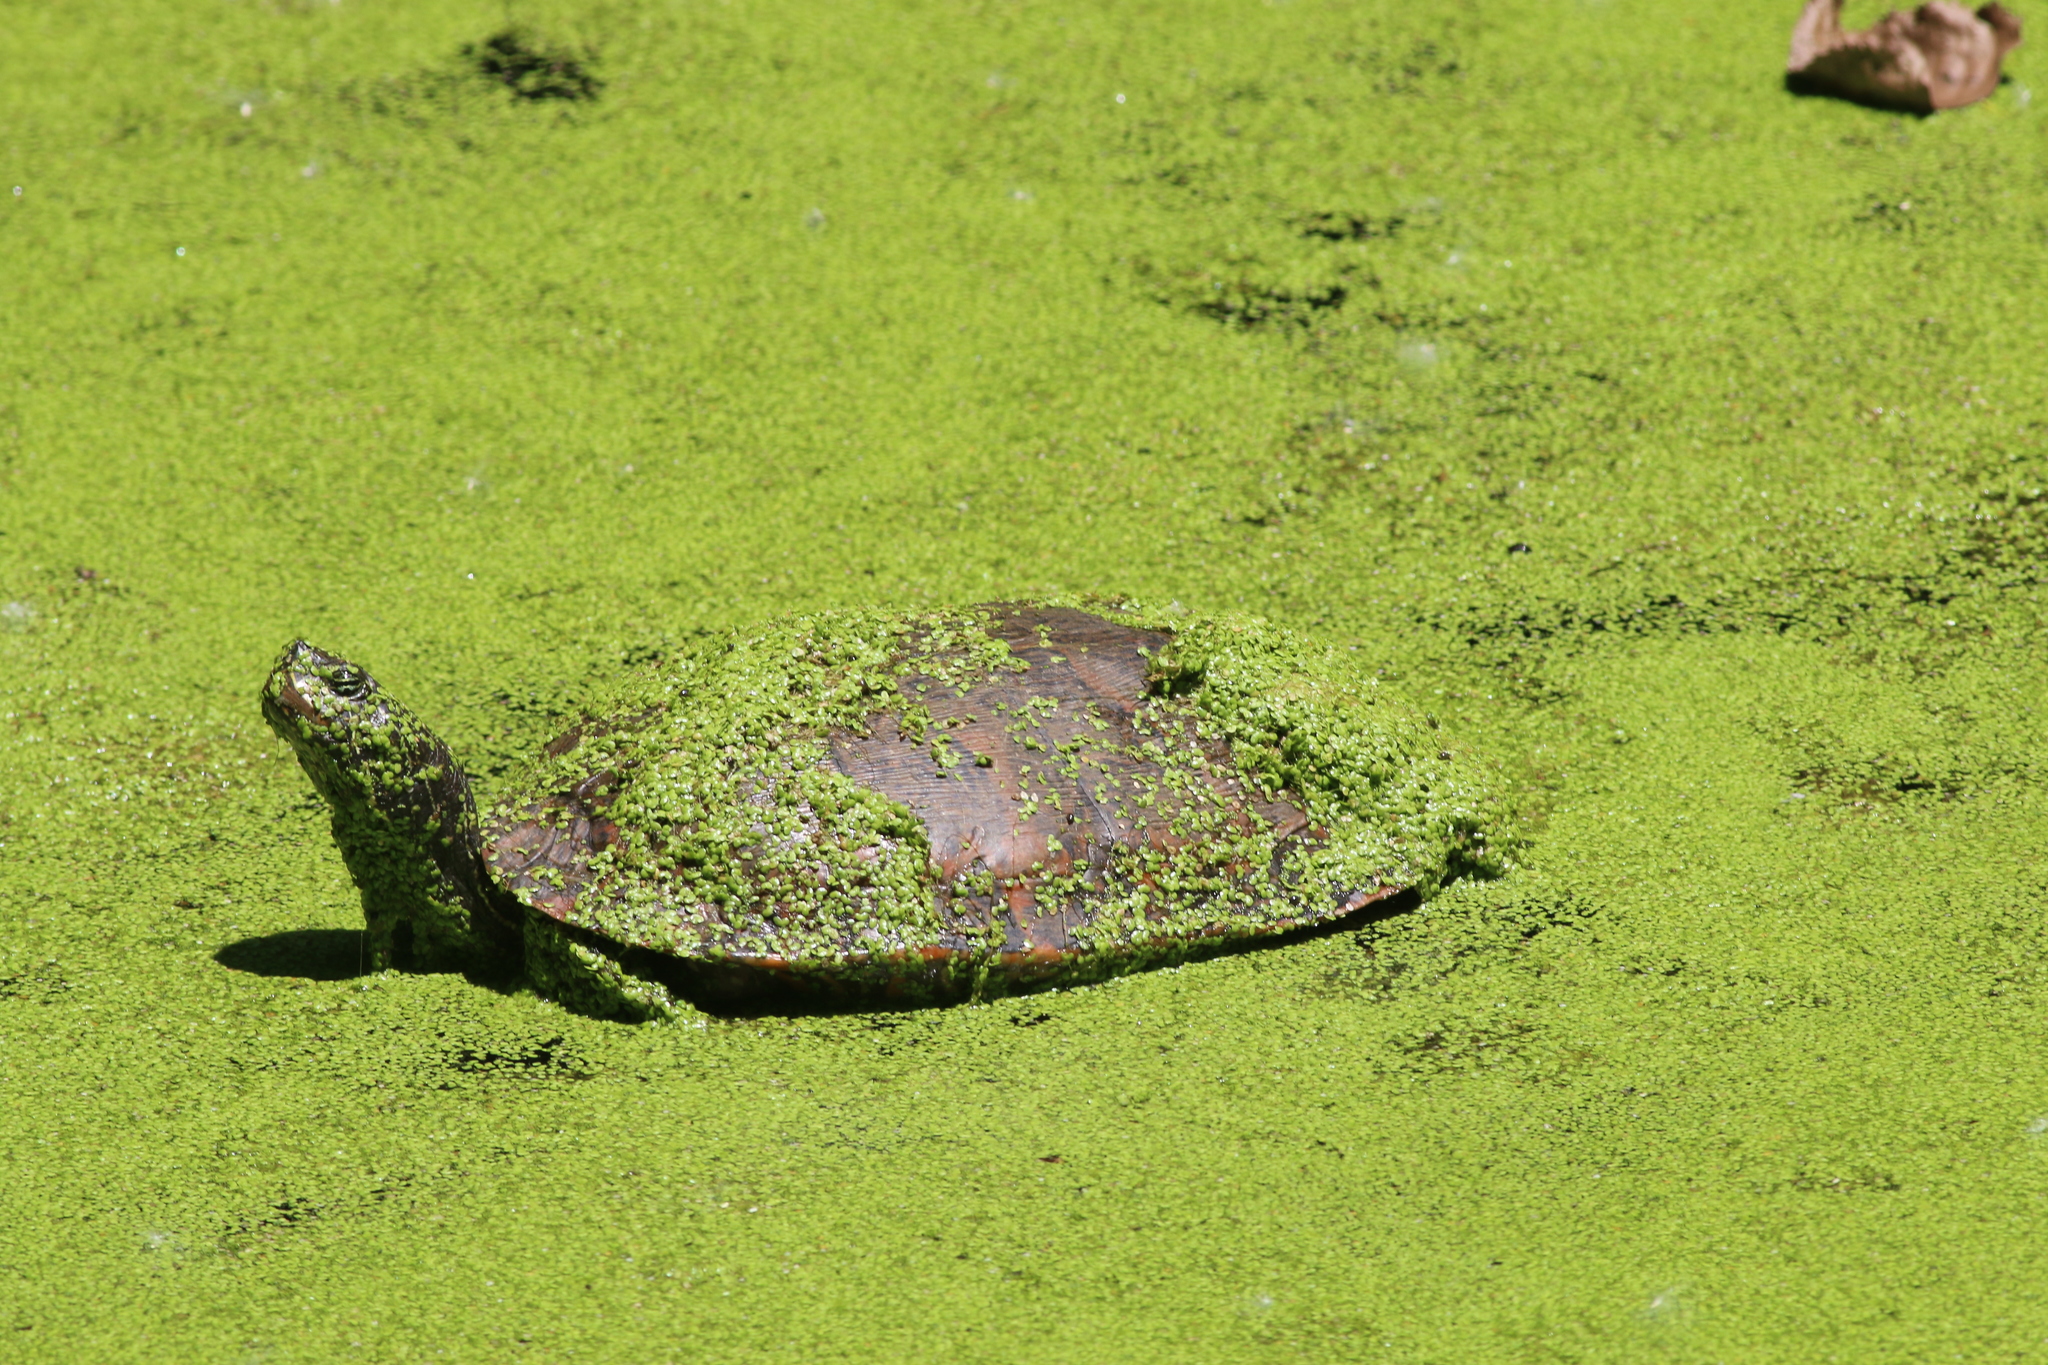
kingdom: Animalia
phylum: Chordata
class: Testudines
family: Emydidae
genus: Pseudemys
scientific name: Pseudemys rubriventris
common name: American red-bellied turtle
